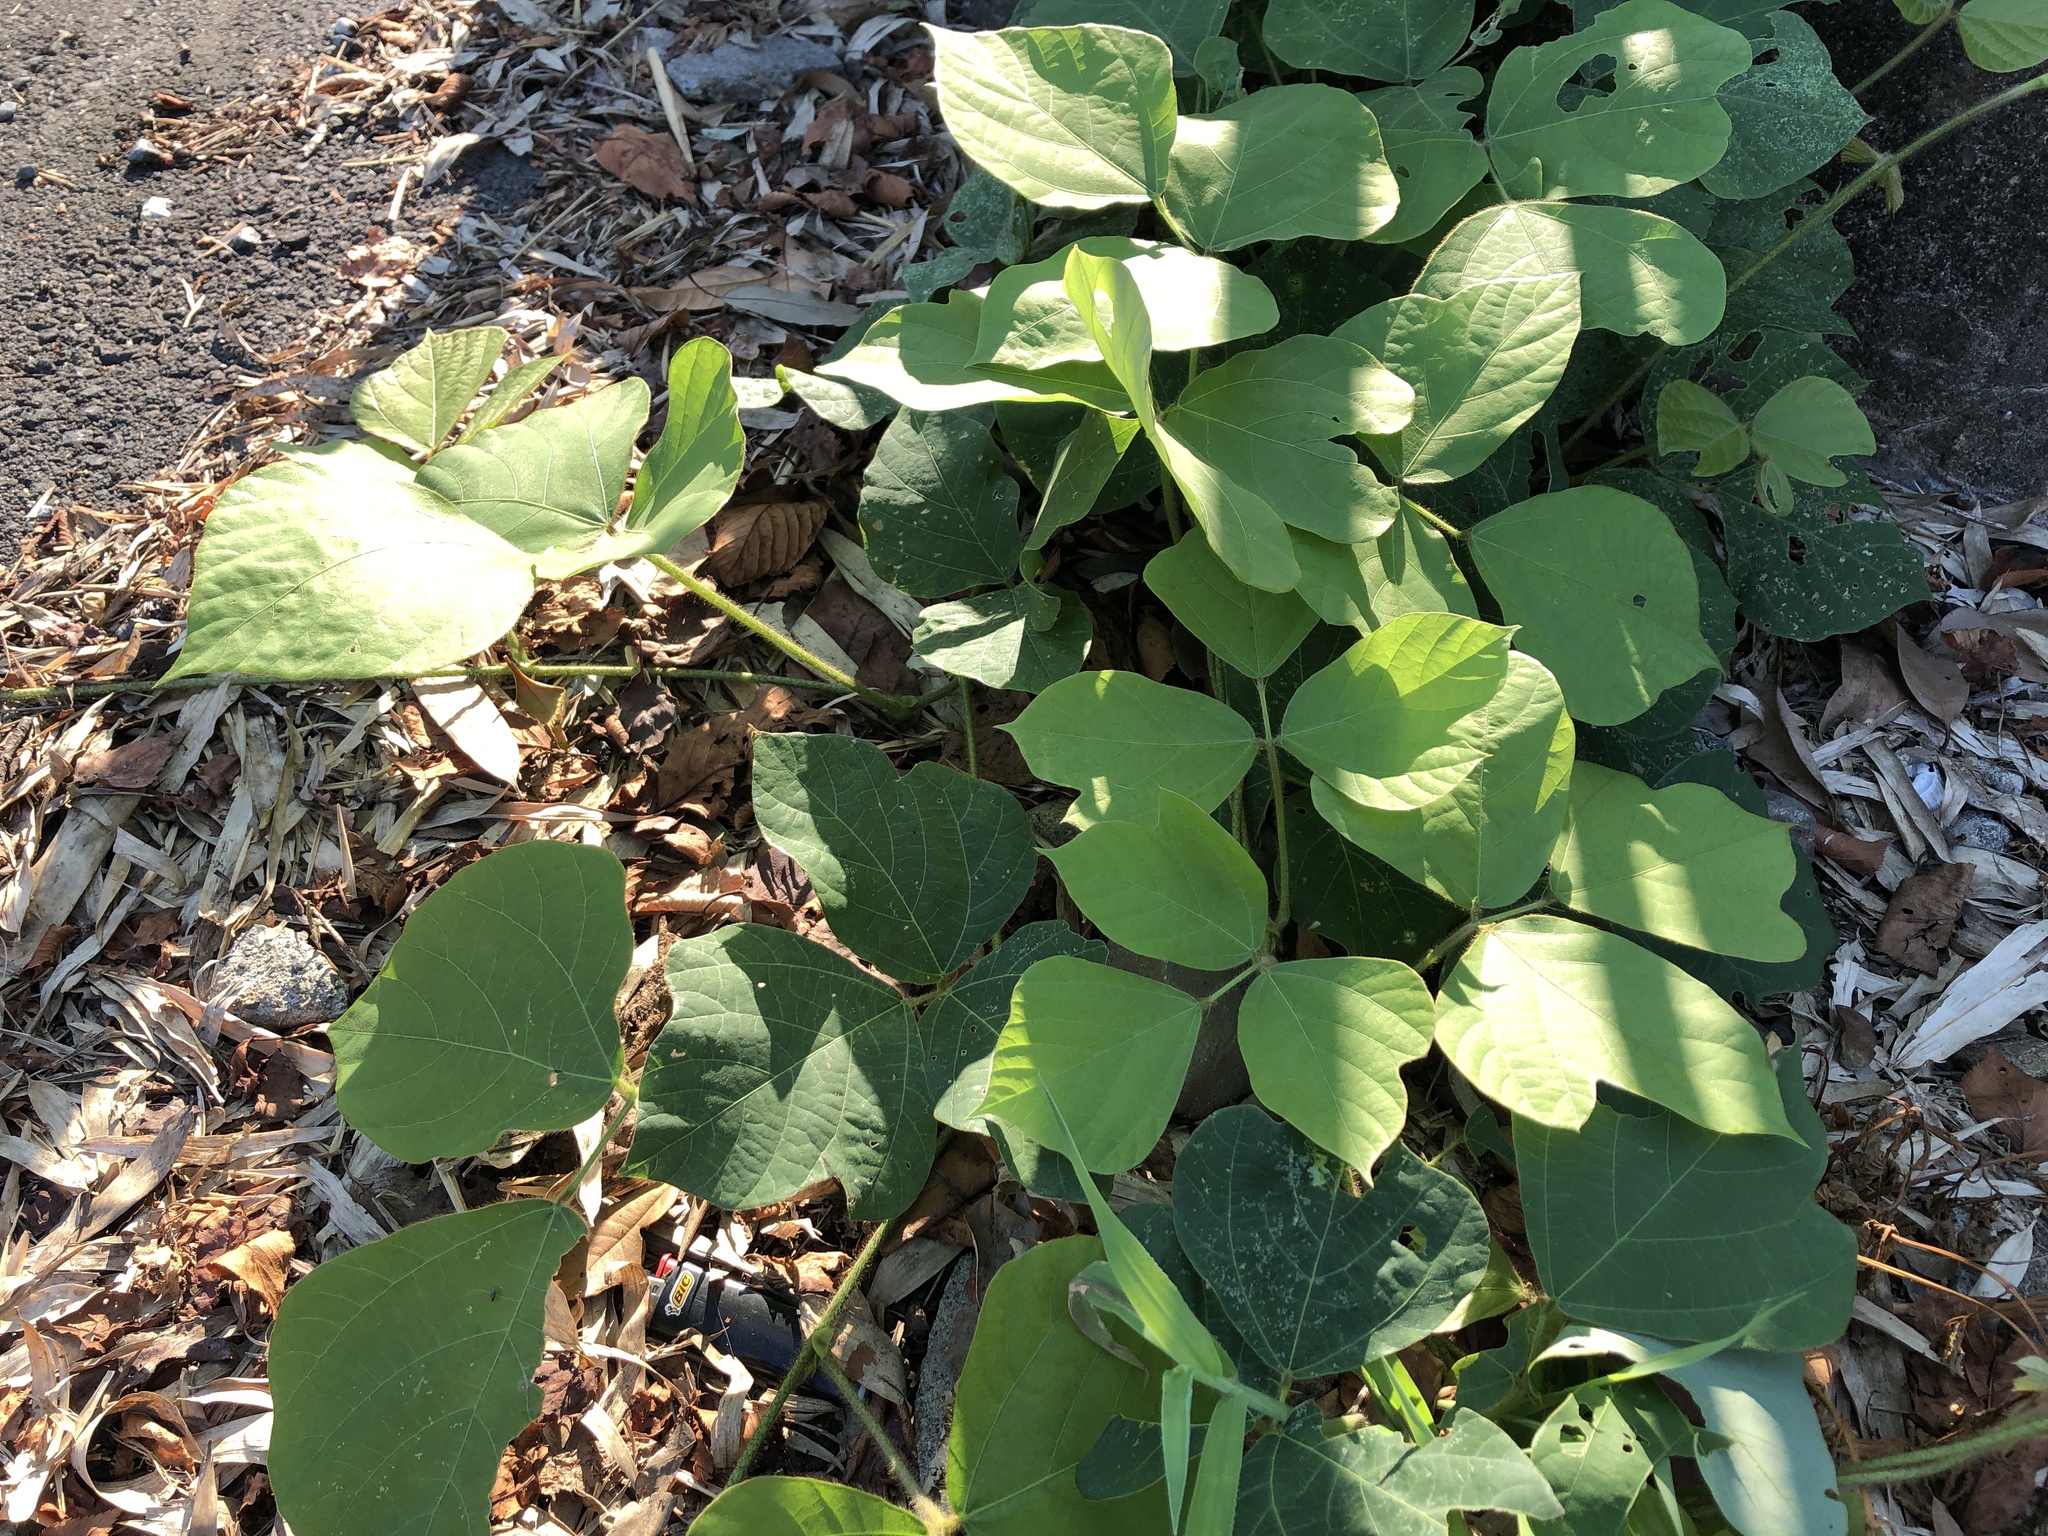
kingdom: Plantae
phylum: Tracheophyta
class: Magnoliopsida
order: Fabales
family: Fabaceae
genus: Pueraria
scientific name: Pueraria montana
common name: Kudzu
